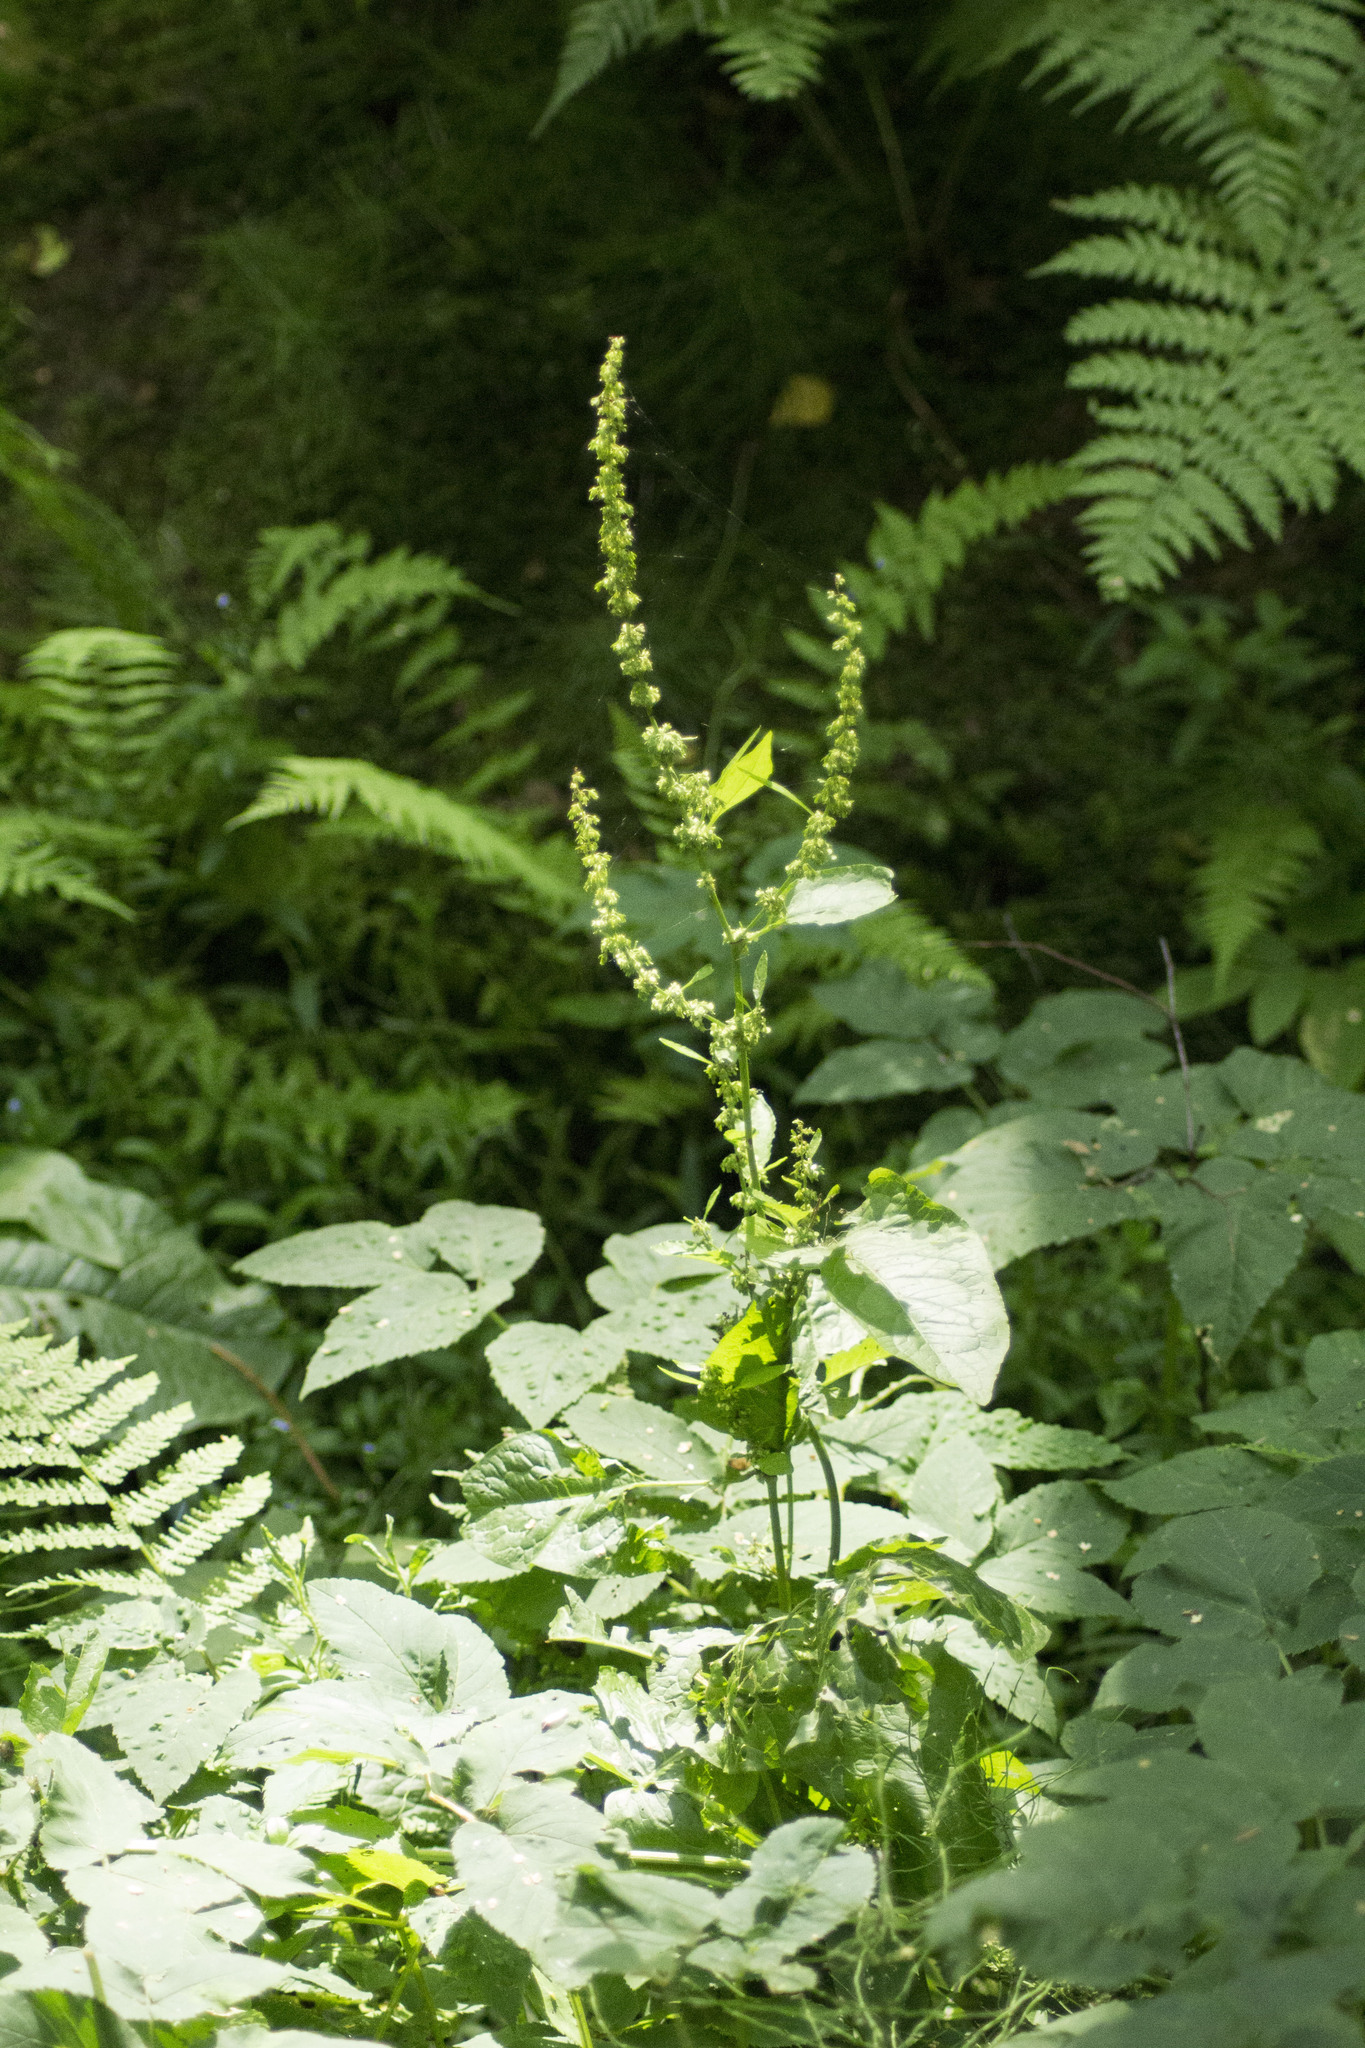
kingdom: Plantae
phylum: Tracheophyta
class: Magnoliopsida
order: Caryophyllales
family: Polygonaceae
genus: Rumex
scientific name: Rumex obtusifolius
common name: Bitter dock
